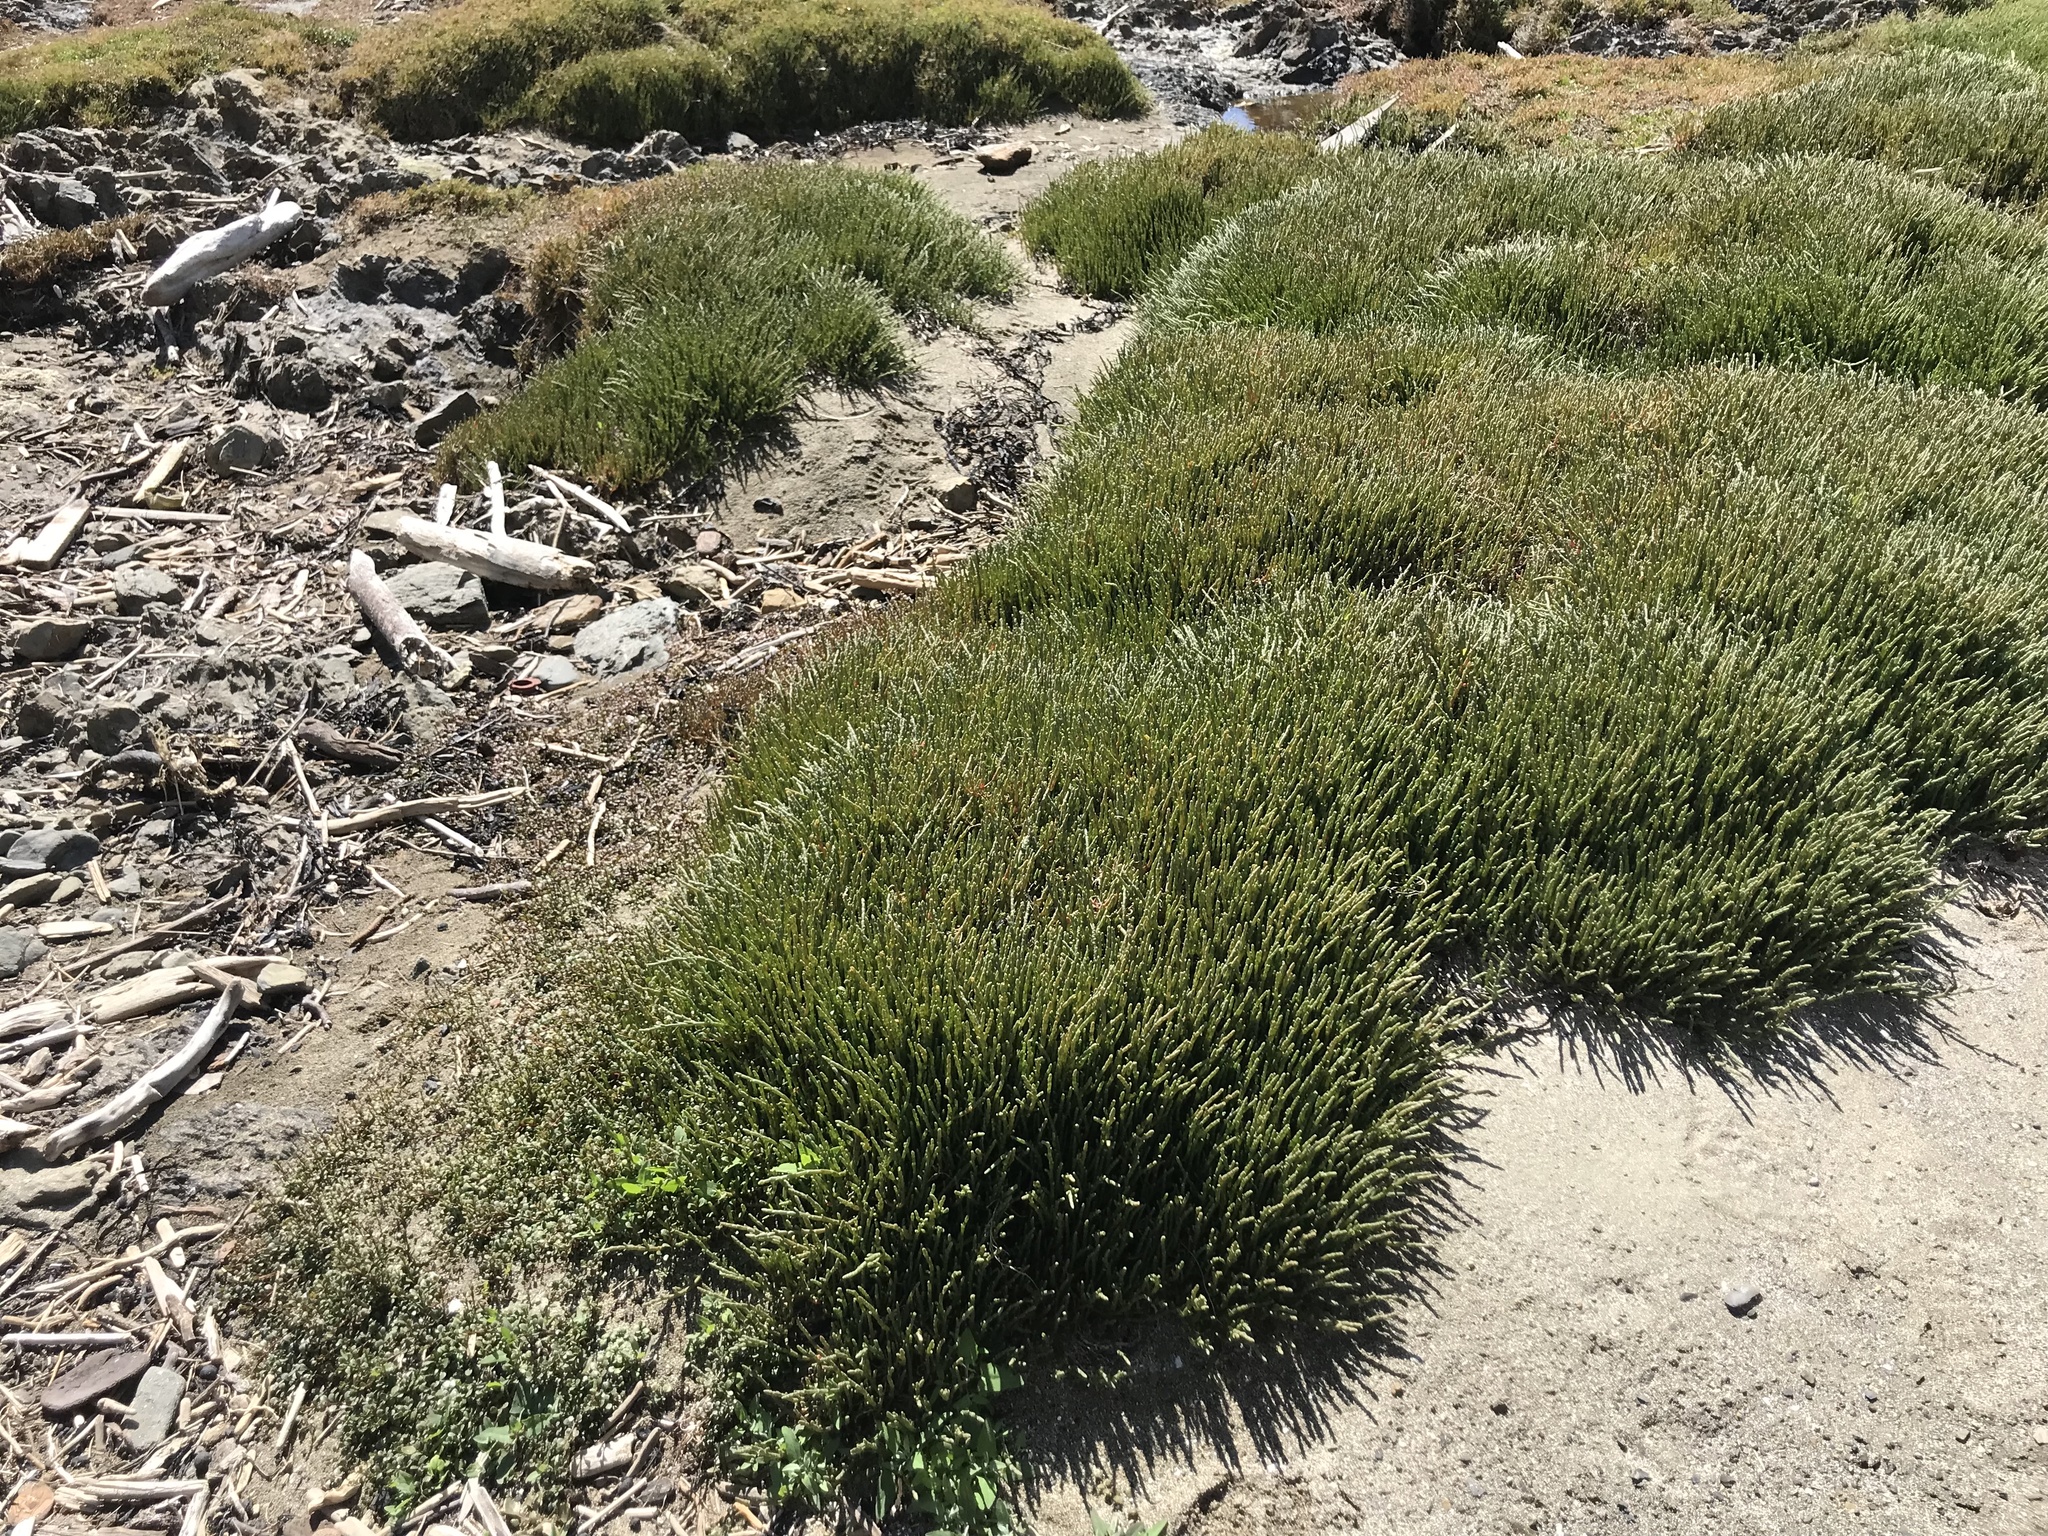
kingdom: Plantae
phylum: Tracheophyta
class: Magnoliopsida
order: Caryophyllales
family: Amaranthaceae
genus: Salicornia
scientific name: Salicornia quinqueflora
